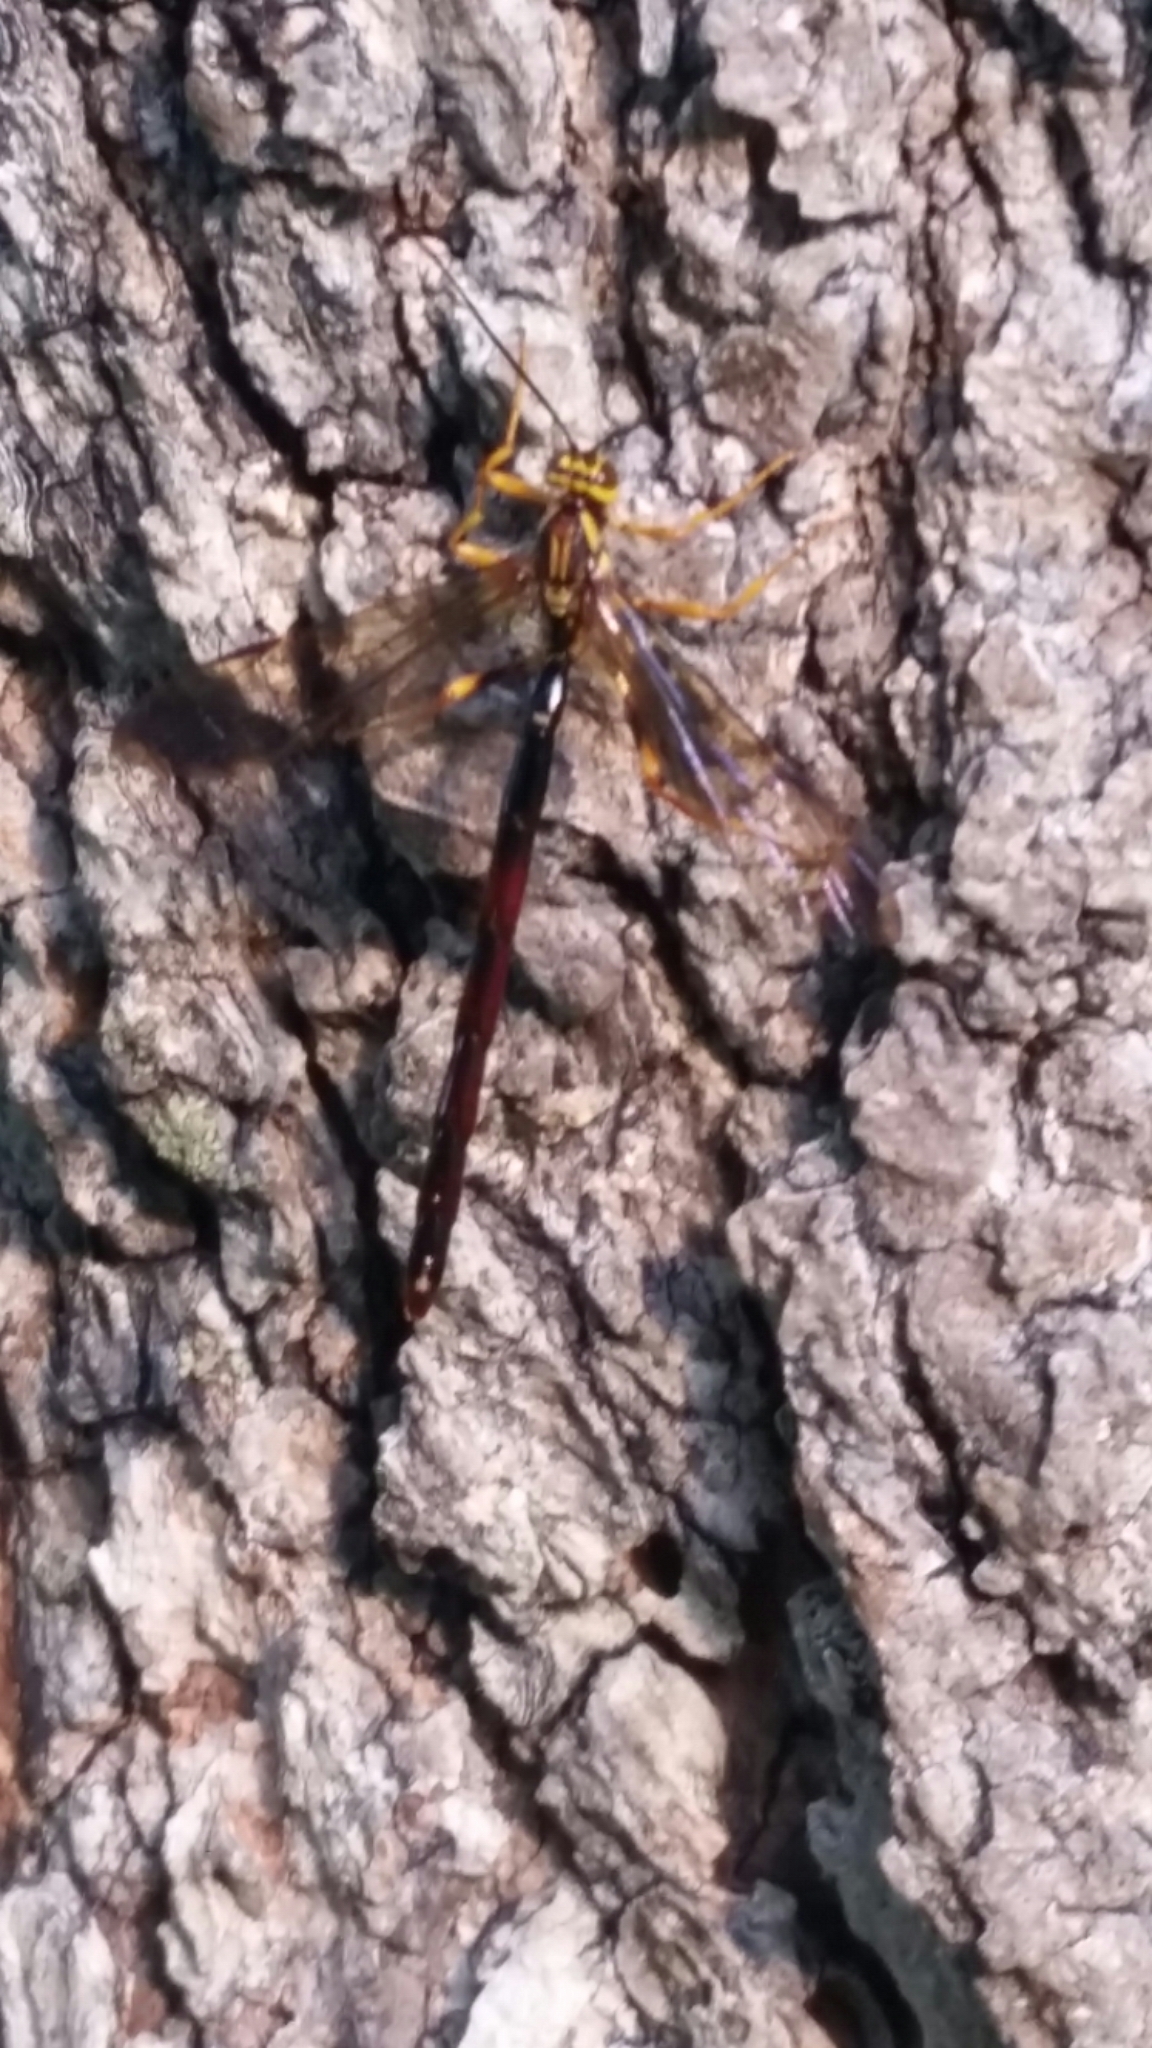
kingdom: Animalia
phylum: Arthropoda
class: Insecta
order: Hymenoptera
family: Ichneumonidae
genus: Megarhyssa
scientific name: Megarhyssa atrata
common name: Black giant ichneumonid wasp
